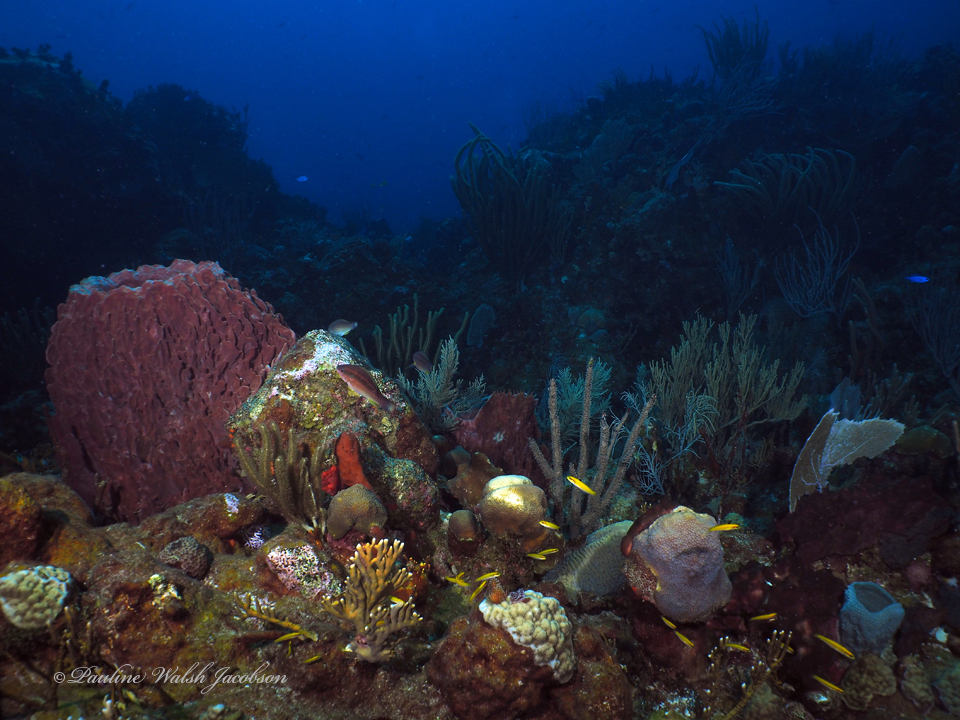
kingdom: Animalia
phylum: Chordata
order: Perciformes
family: Labridae
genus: Thalassoma
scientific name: Thalassoma bifasciatum
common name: Bluehead wrasse
